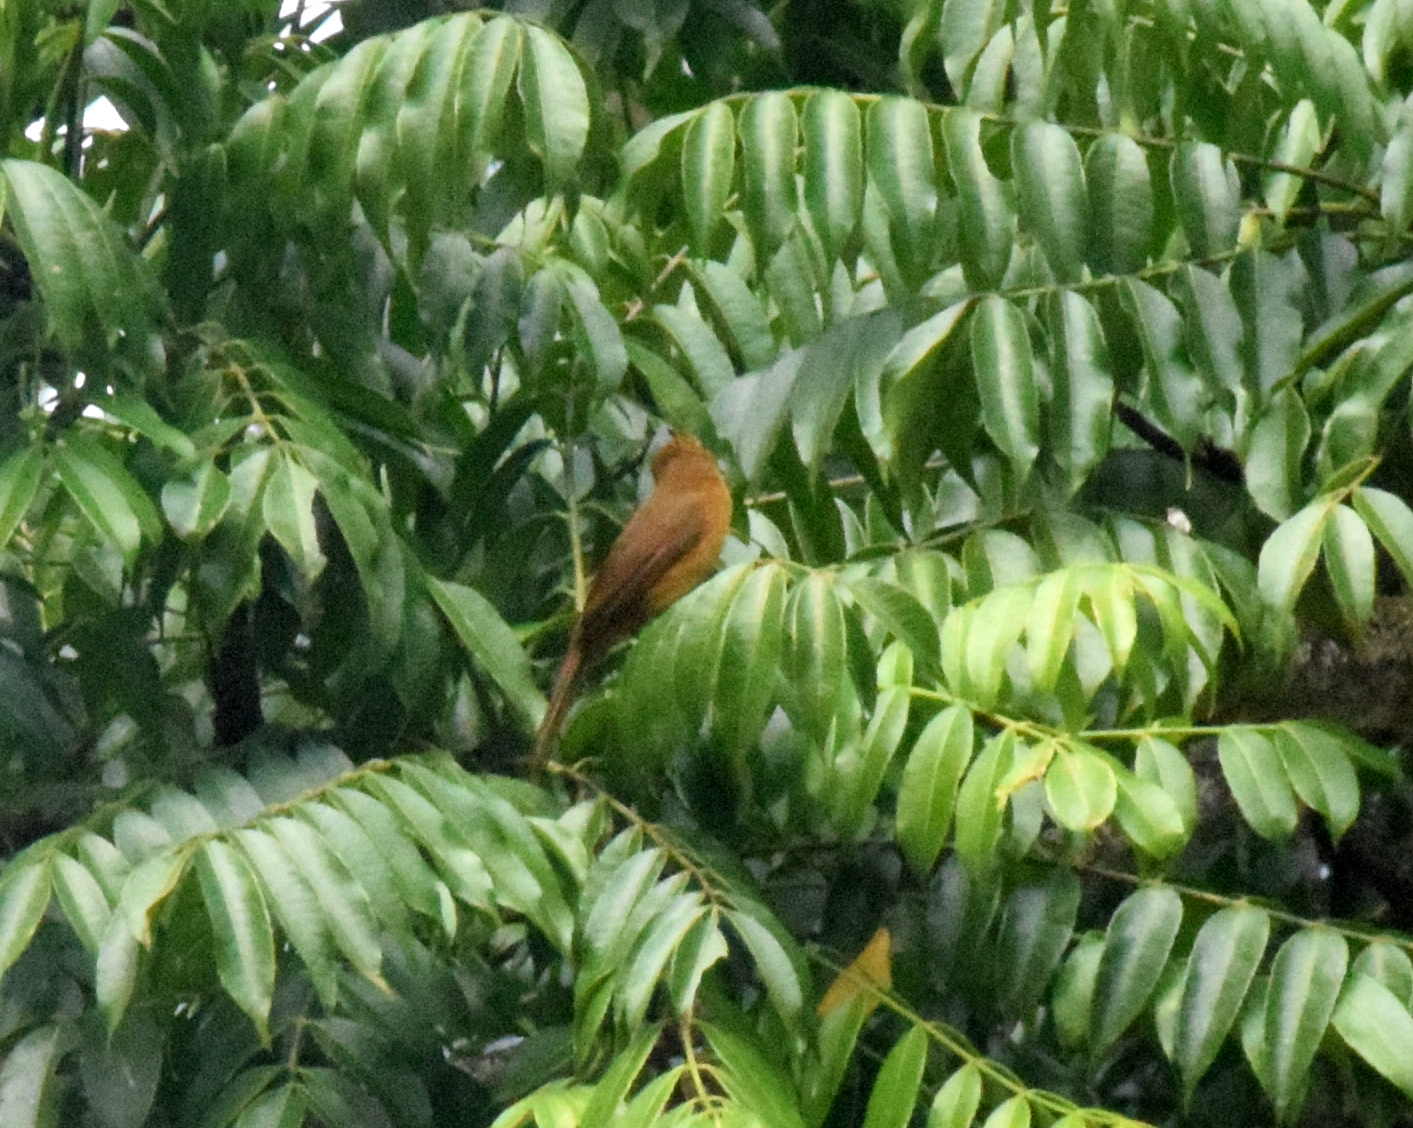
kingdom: Animalia
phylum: Chordata
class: Aves
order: Passeriformes
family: Thraupidae
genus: Tachyphonus
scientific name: Tachyphonus coronatus
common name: Ruby-crowned tanager
